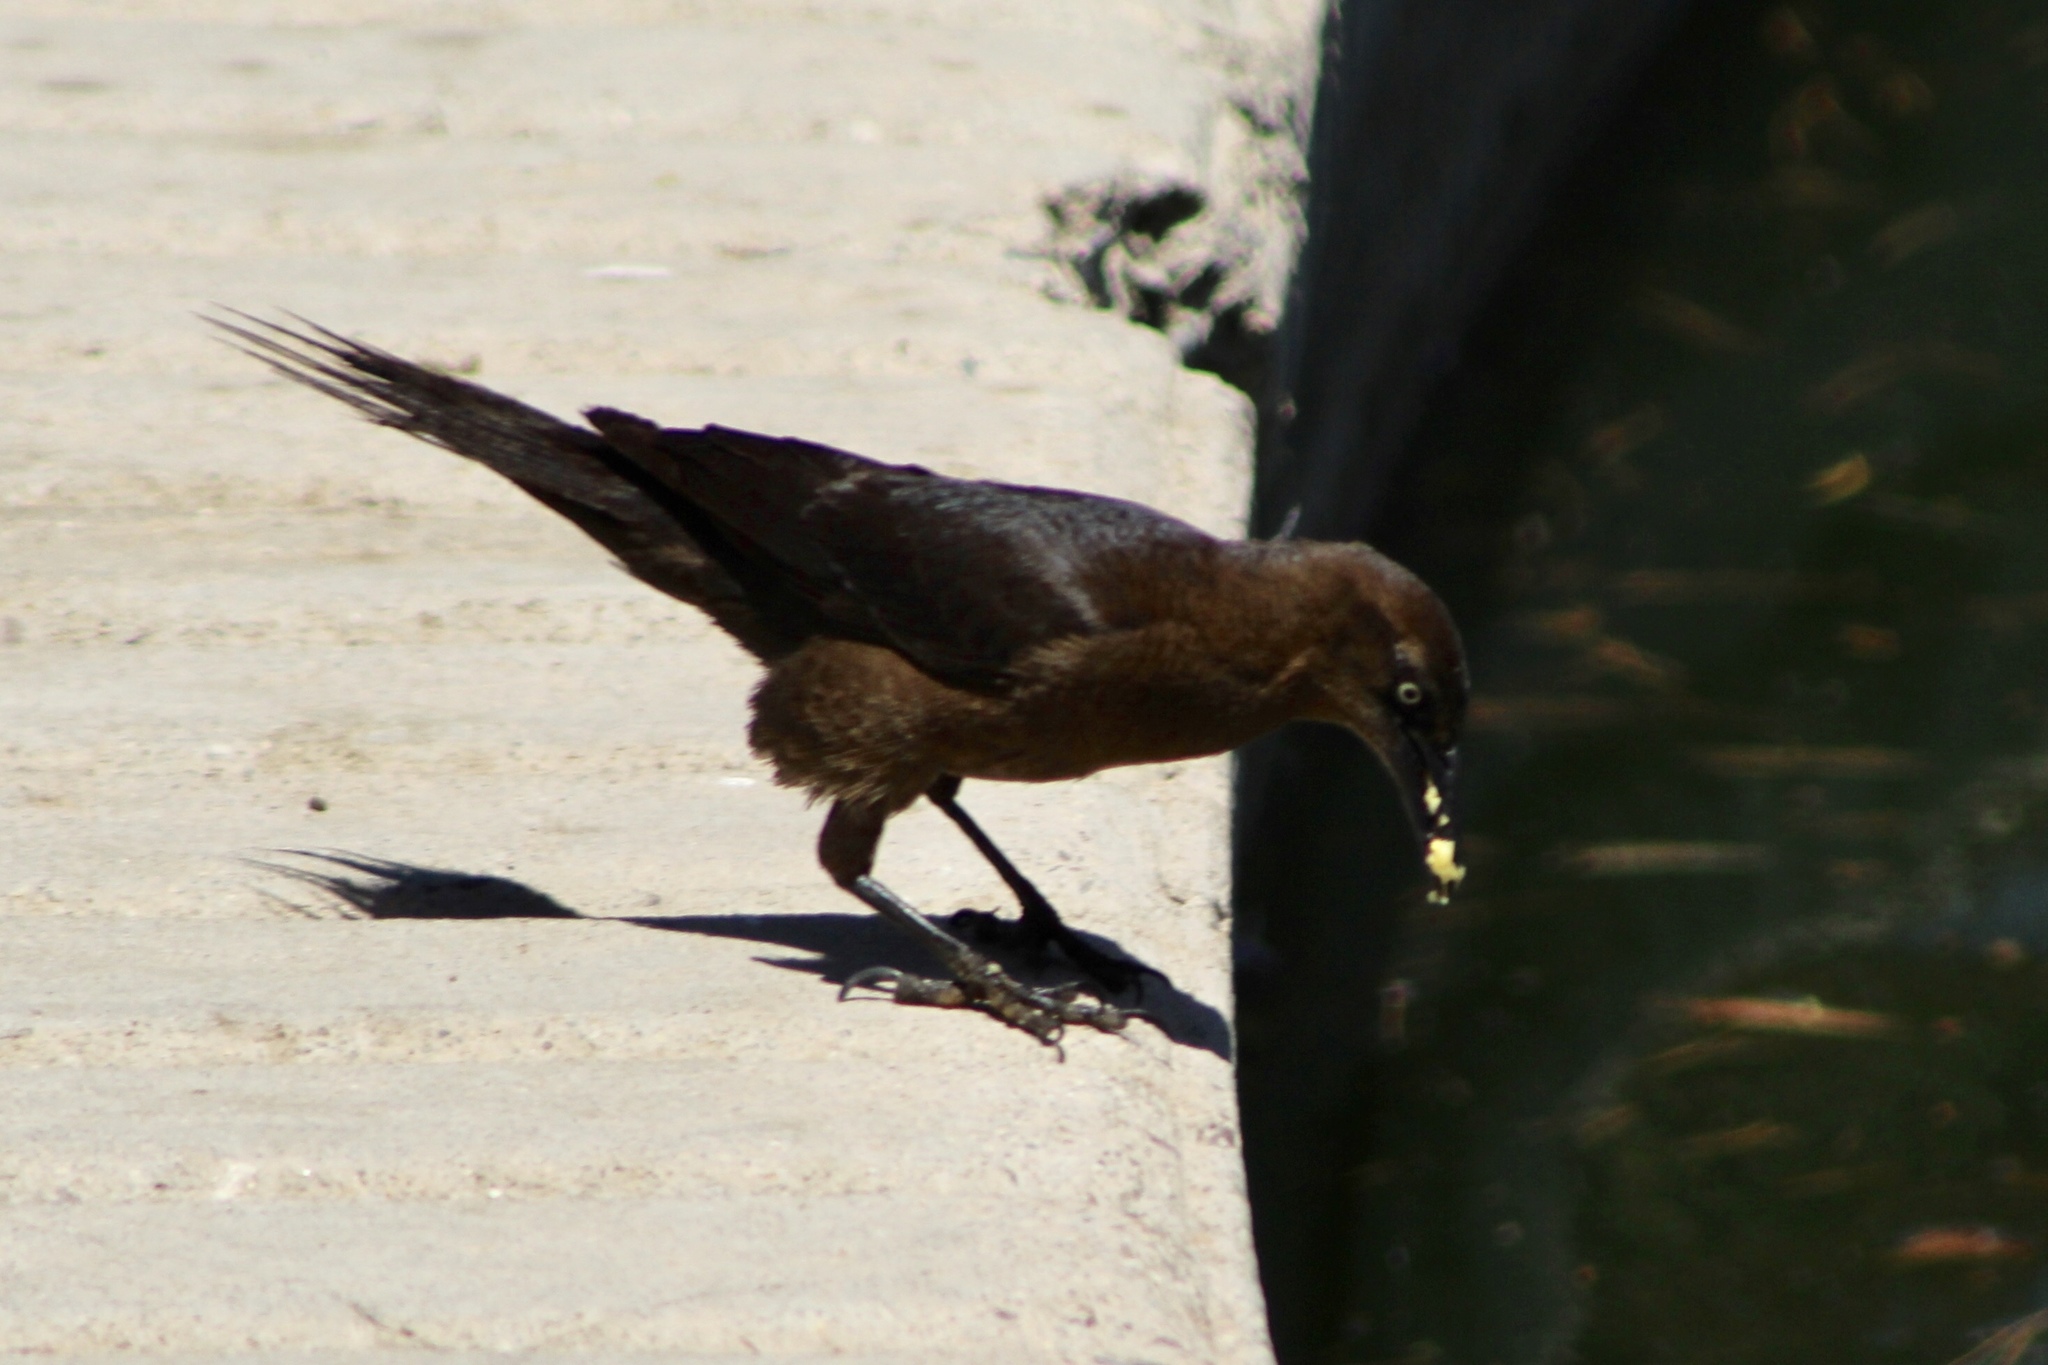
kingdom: Animalia
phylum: Chordata
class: Aves
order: Passeriformes
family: Icteridae
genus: Quiscalus
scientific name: Quiscalus mexicanus
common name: Great-tailed grackle
